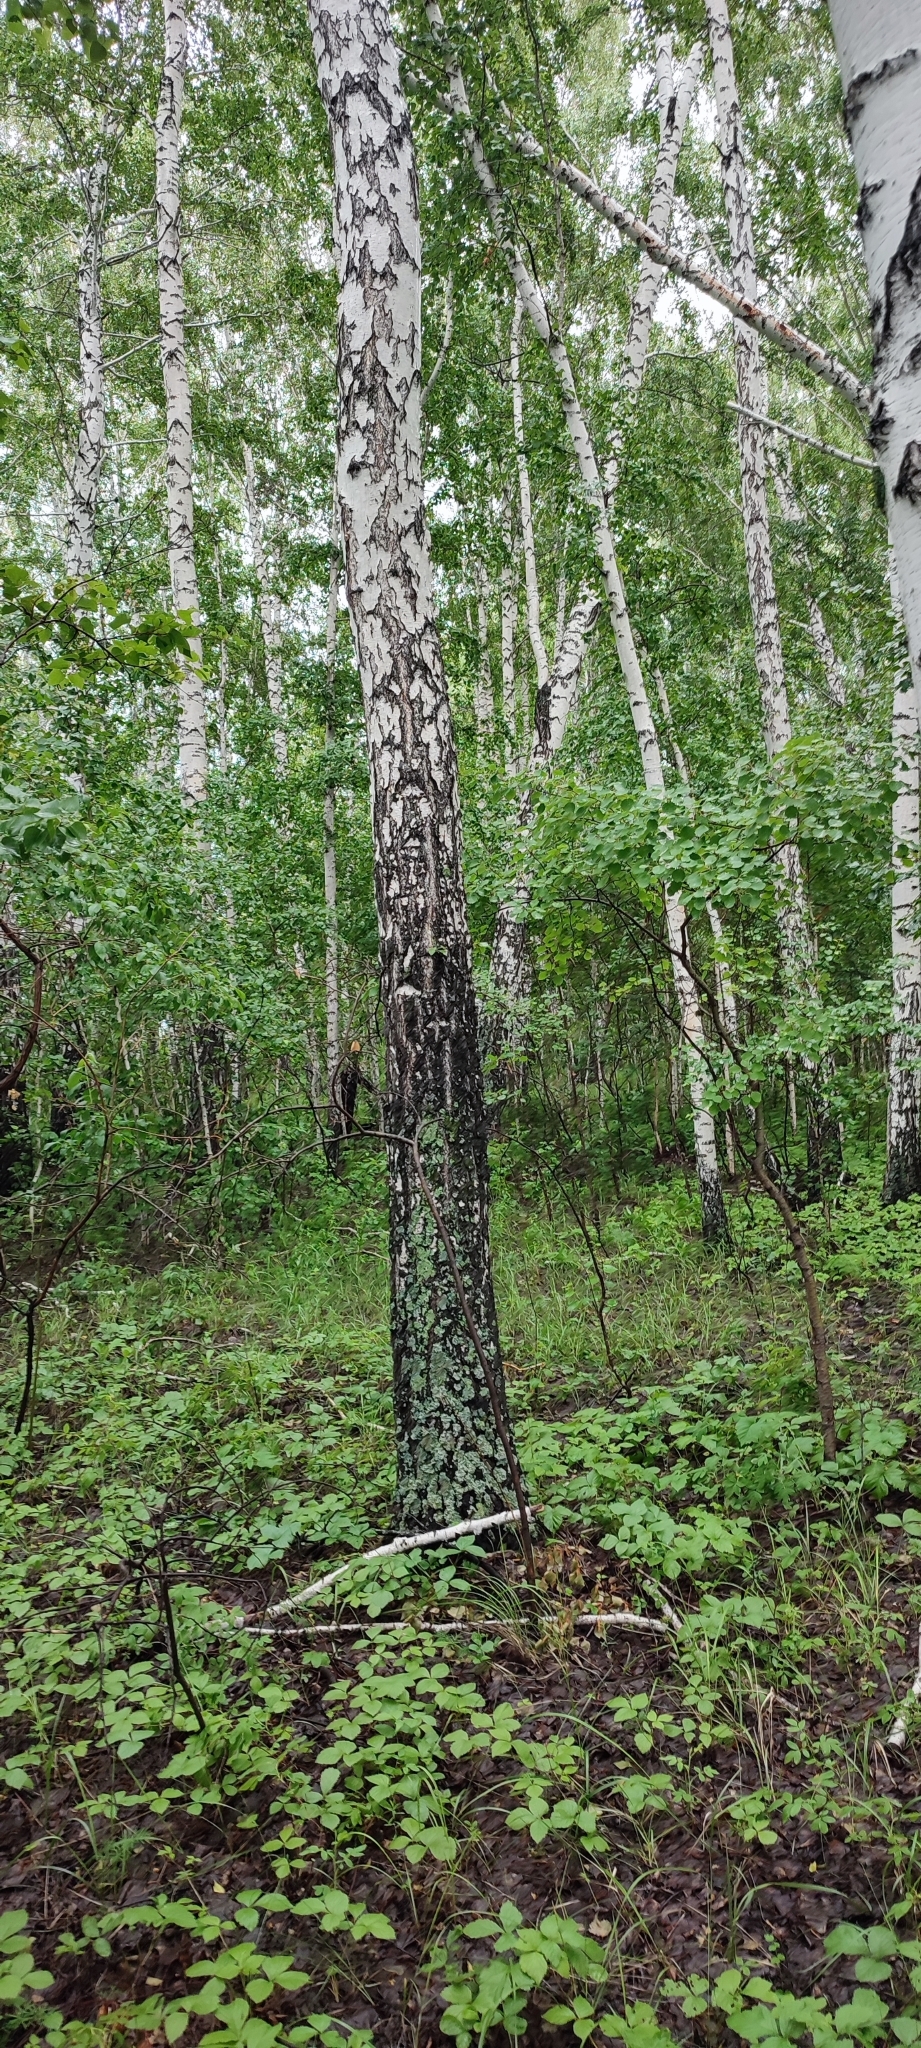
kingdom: Plantae
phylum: Tracheophyta
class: Magnoliopsida
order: Fagales
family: Betulaceae
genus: Betula
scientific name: Betula pendula
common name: Silver birch
